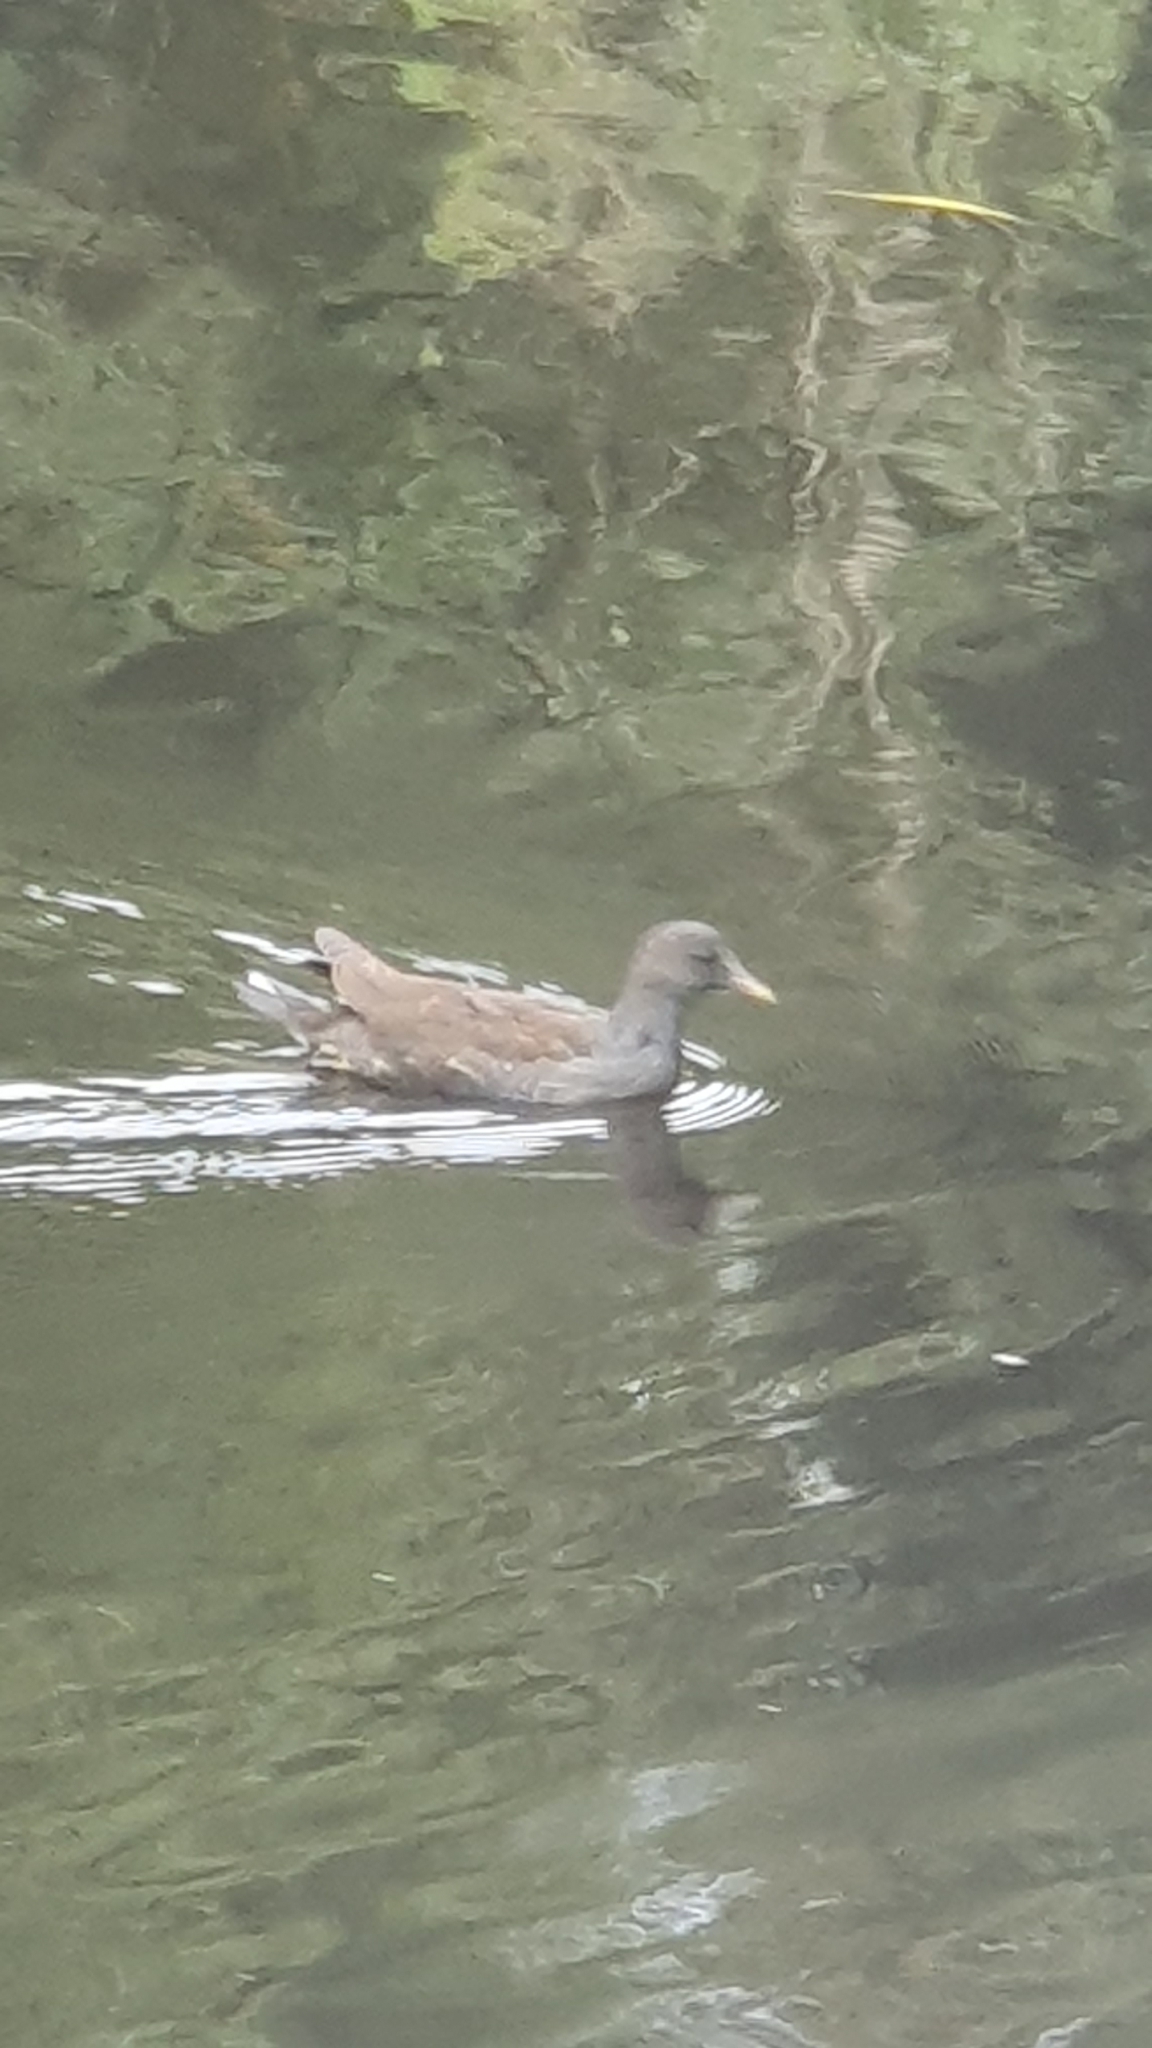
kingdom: Animalia
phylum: Chordata
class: Aves
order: Gruiformes
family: Rallidae
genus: Gallinula
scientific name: Gallinula chloropus
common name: Common moorhen
